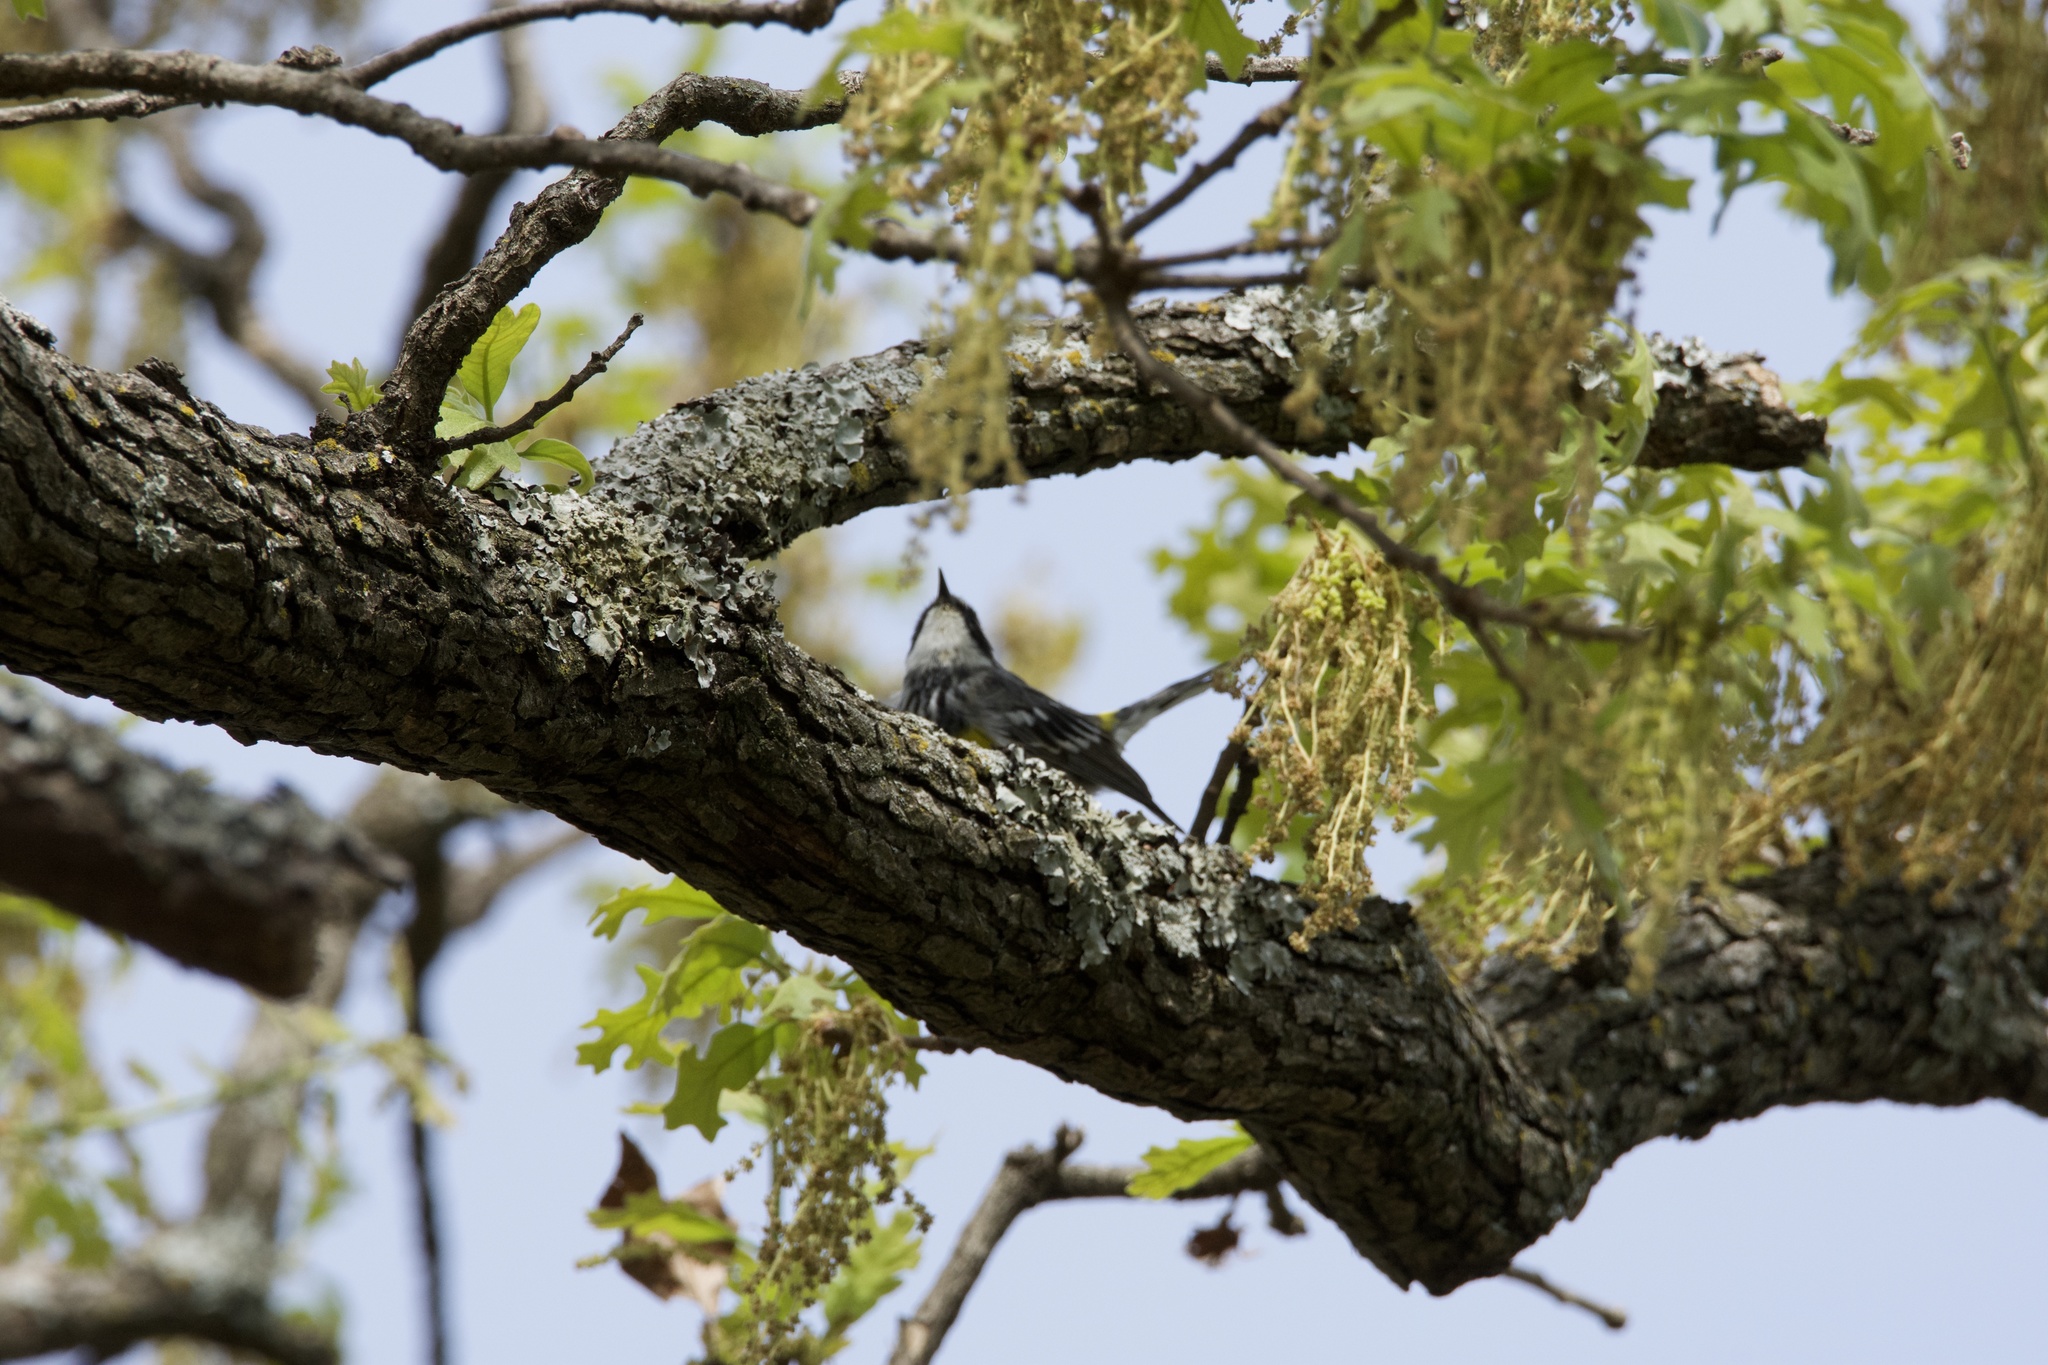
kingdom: Animalia
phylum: Chordata
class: Aves
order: Passeriformes
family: Parulidae
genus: Setophaga
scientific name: Setophaga coronata
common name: Myrtle warbler
